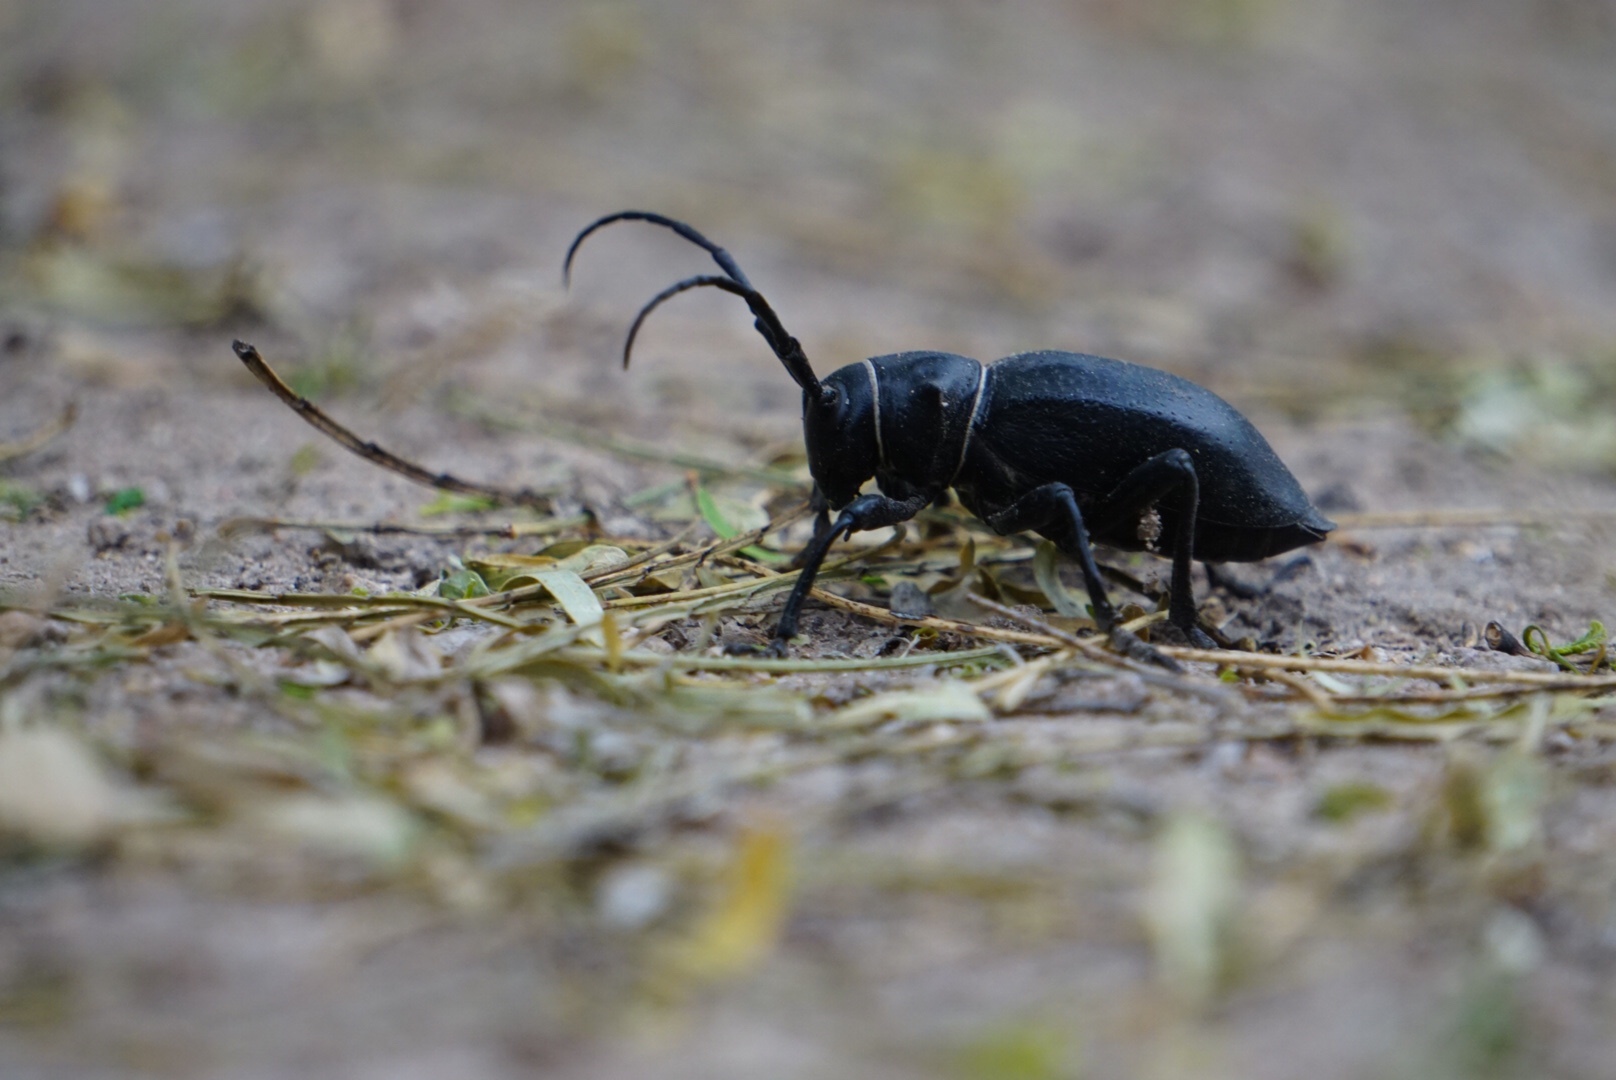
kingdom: Animalia
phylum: Arthropoda
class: Insecta
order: Coleoptera
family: Cerambycidae
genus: Moneilema
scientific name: Moneilema gigas
